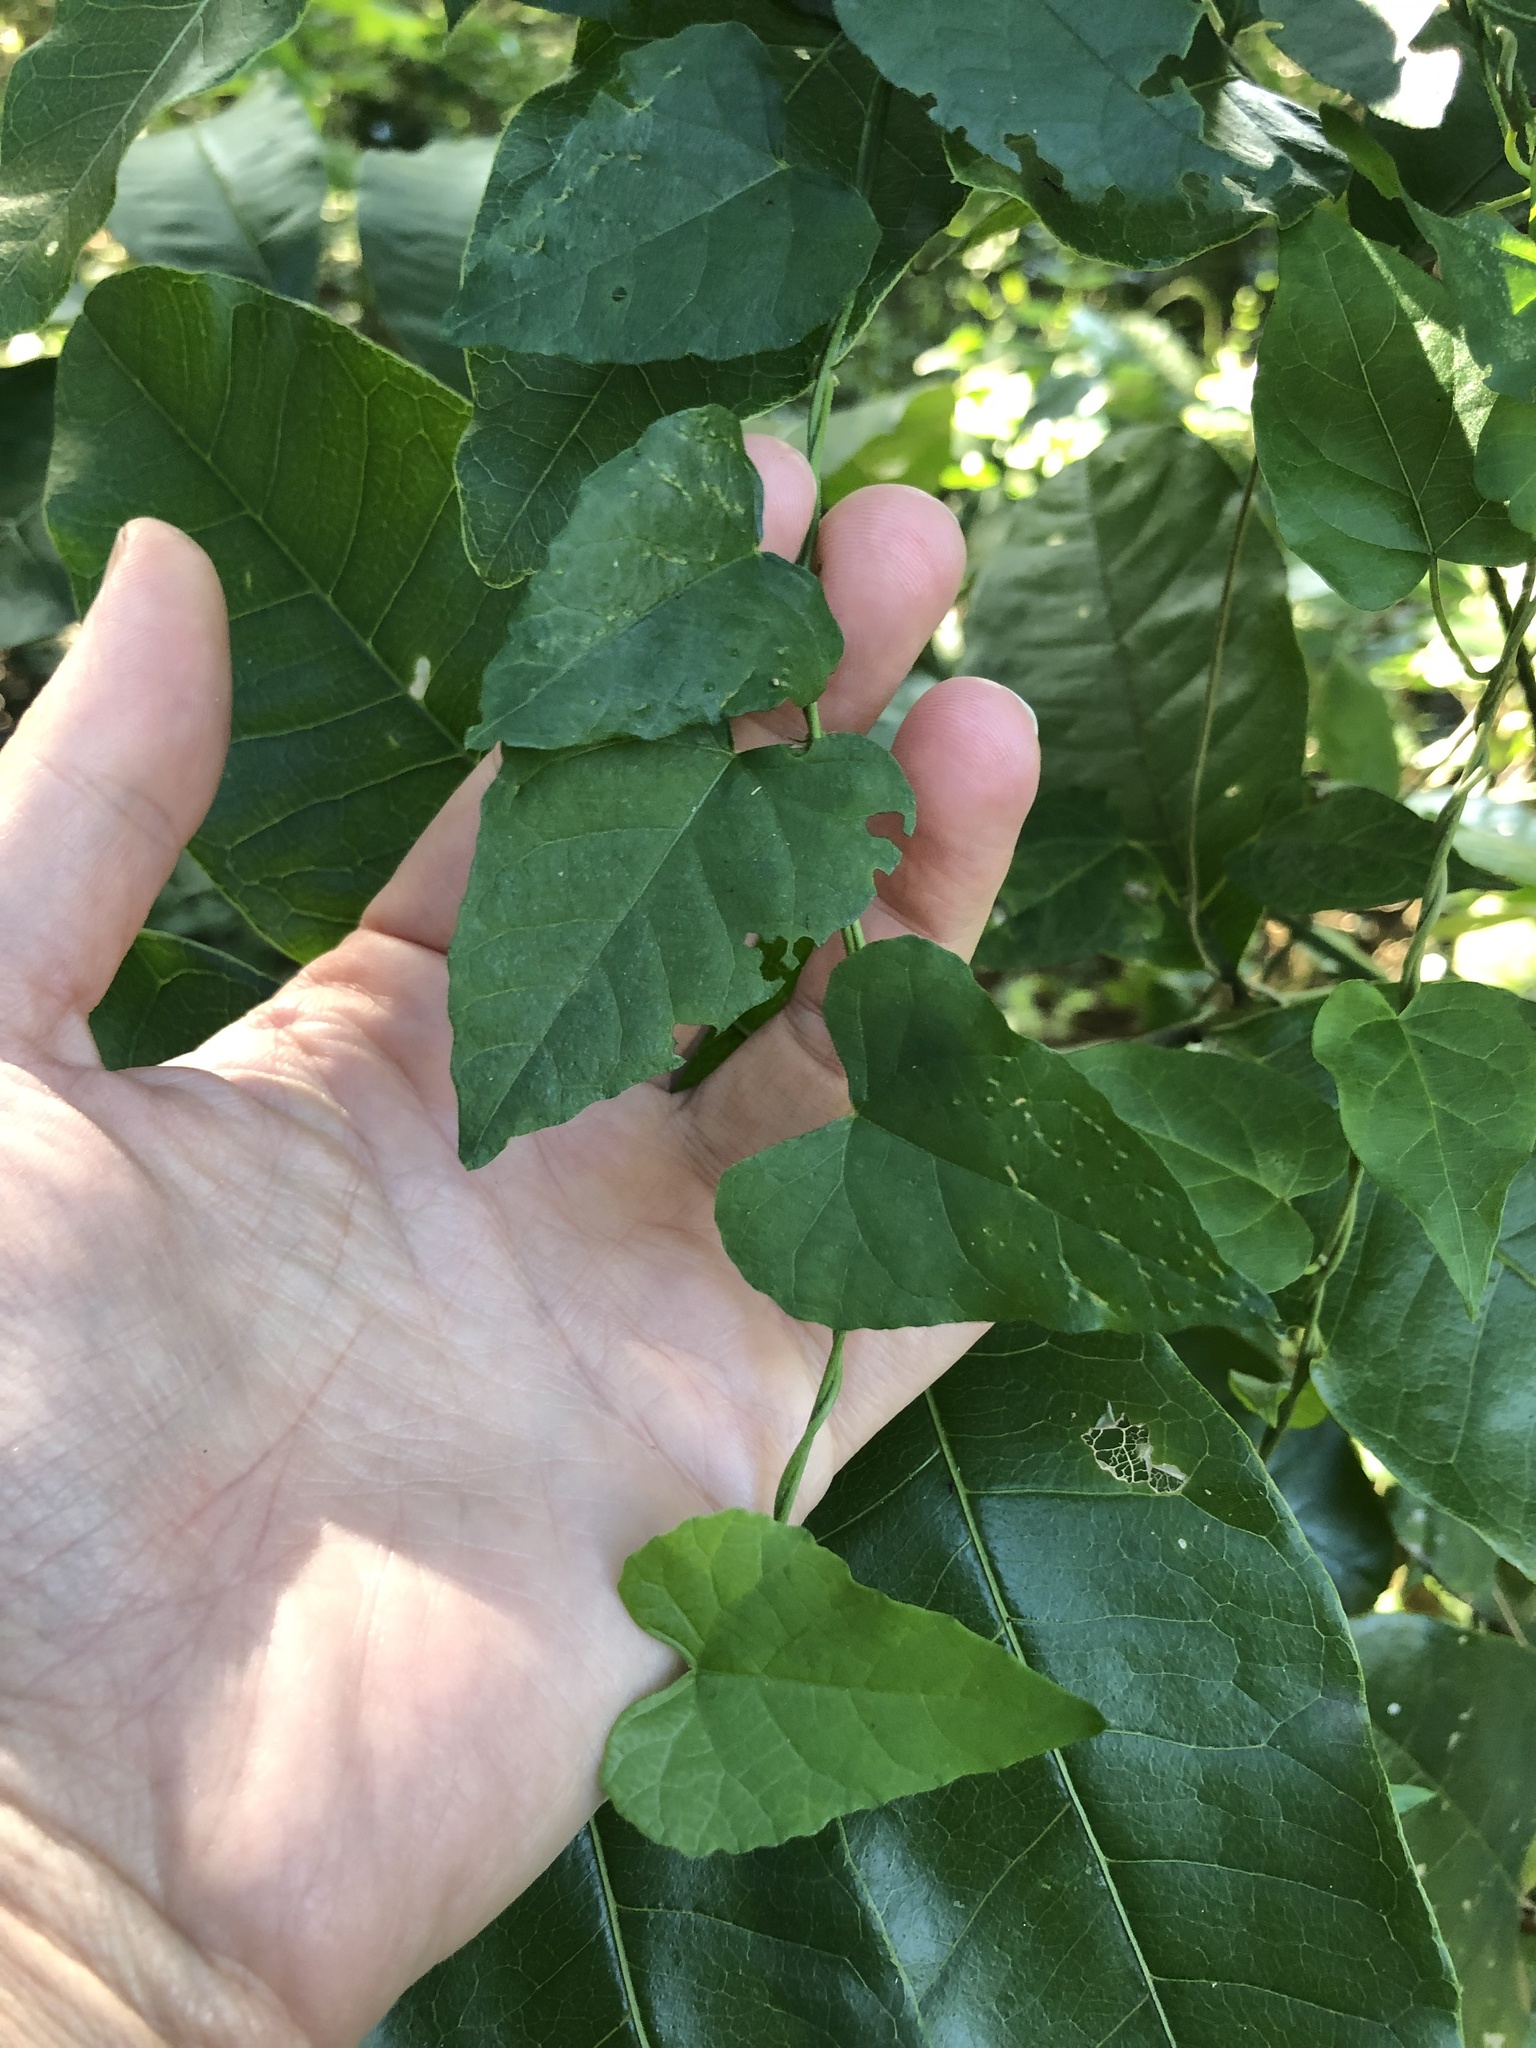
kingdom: Plantae
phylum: Tracheophyta
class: Magnoliopsida
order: Vitales
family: Vitaceae
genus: Cissus
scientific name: Cissus fragilis
